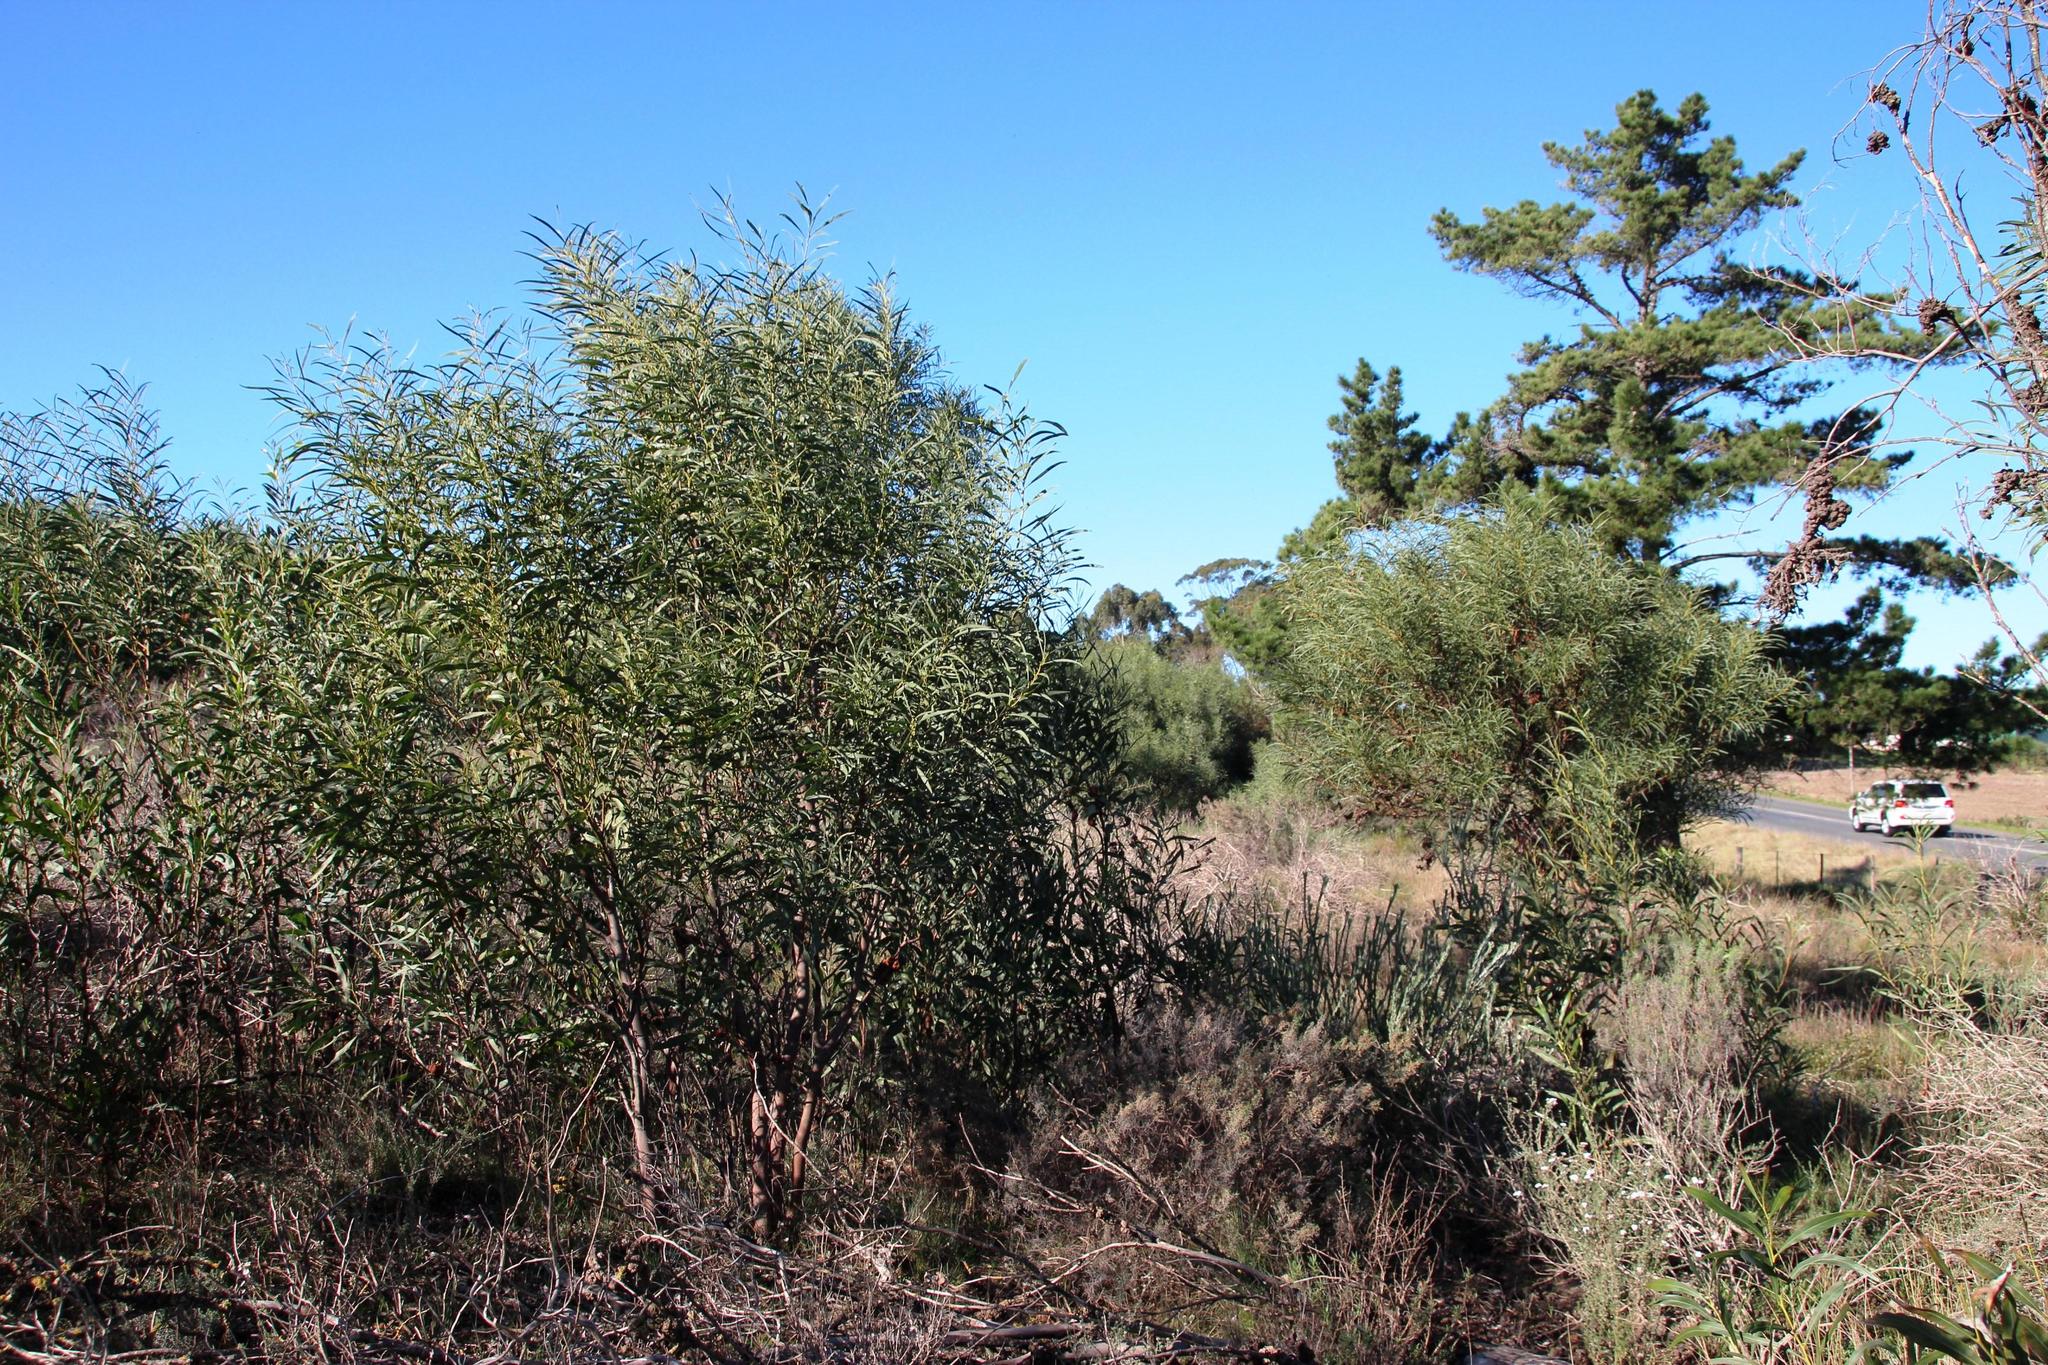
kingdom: Plantae
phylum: Tracheophyta
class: Magnoliopsida
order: Fabales
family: Fabaceae
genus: Acacia
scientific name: Acacia saligna
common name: Orange wattle
